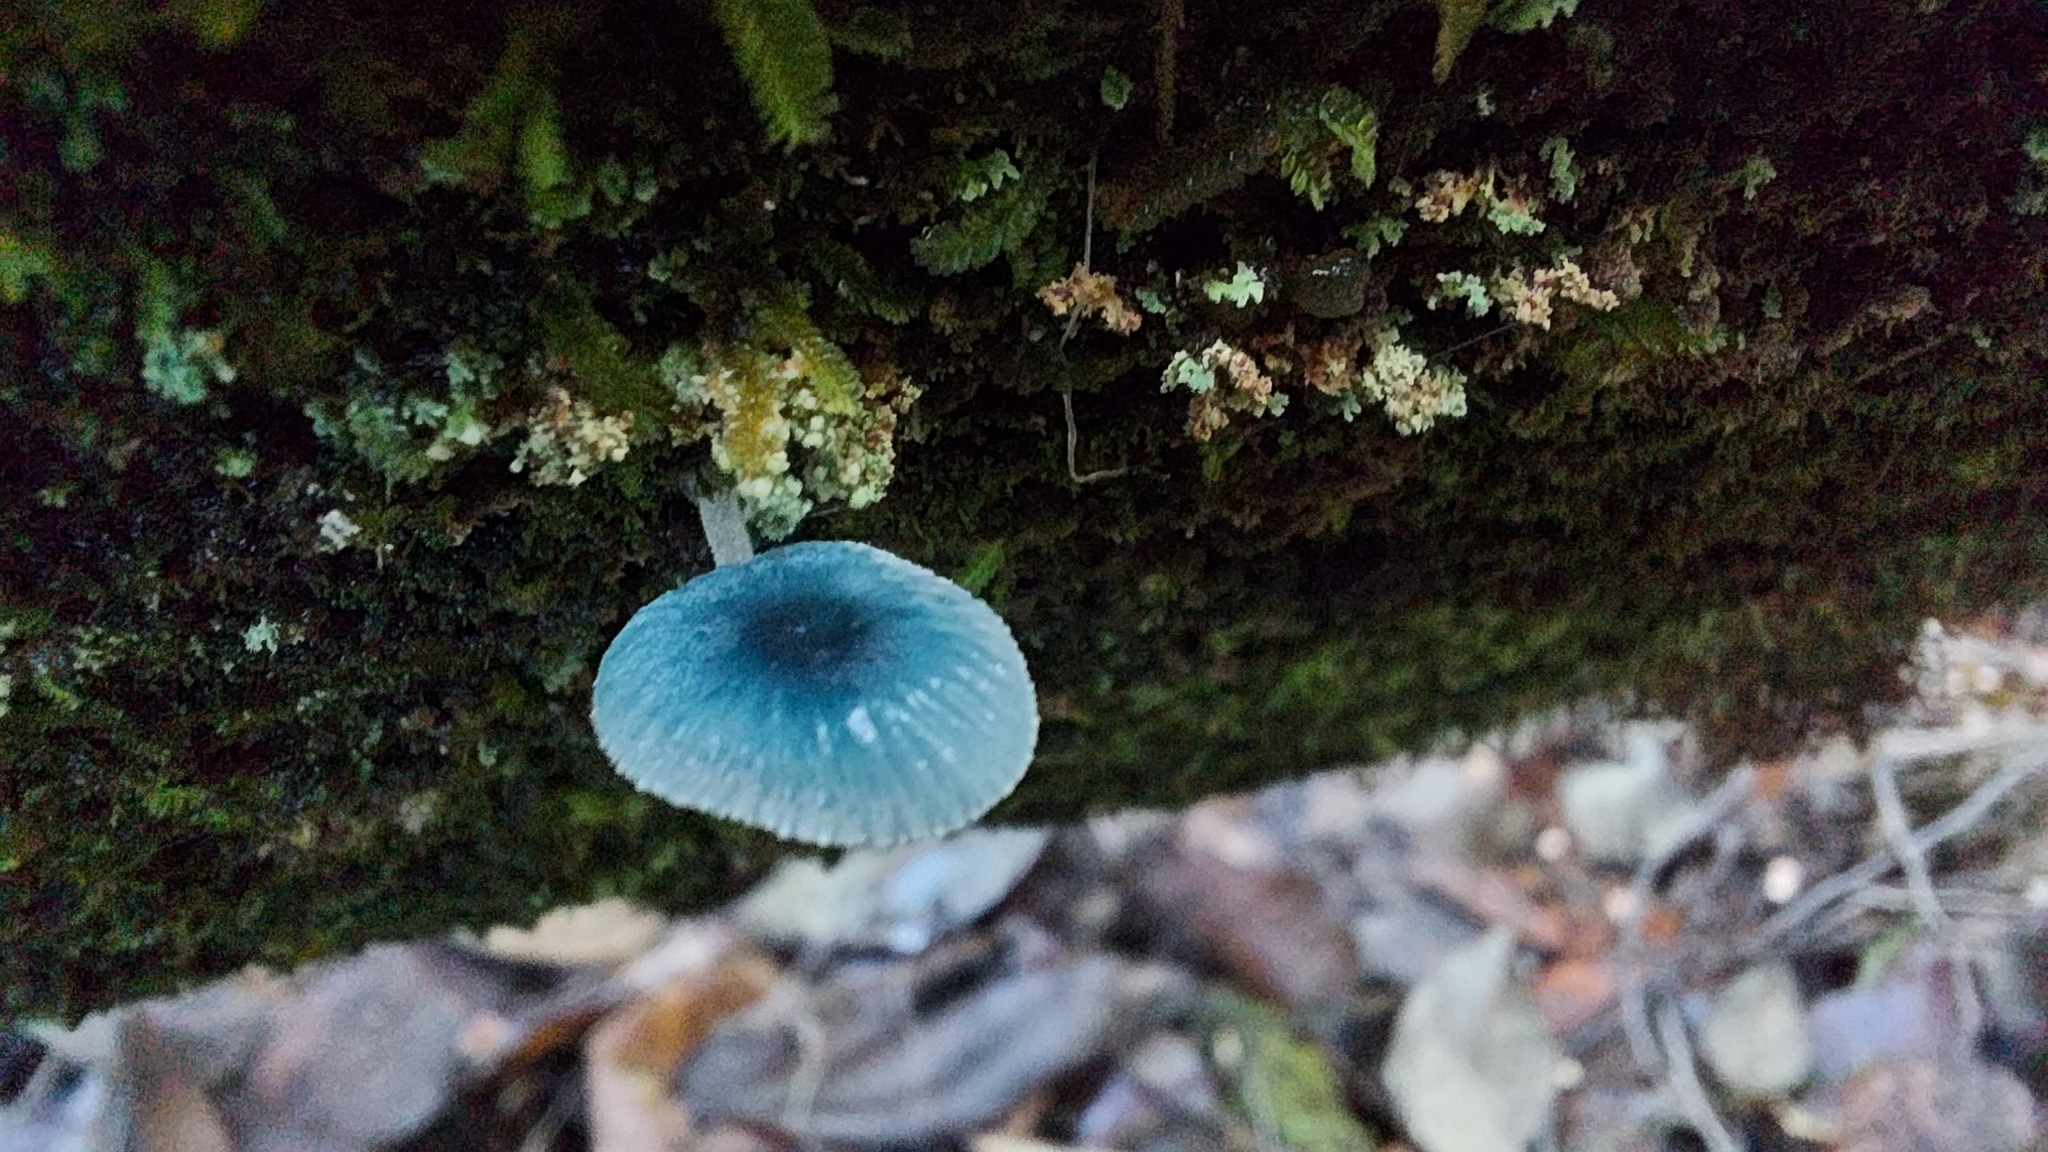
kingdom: Fungi
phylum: Basidiomycota
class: Agaricomycetes
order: Agaricales
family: Mycenaceae
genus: Mycena
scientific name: Mycena interrupta
